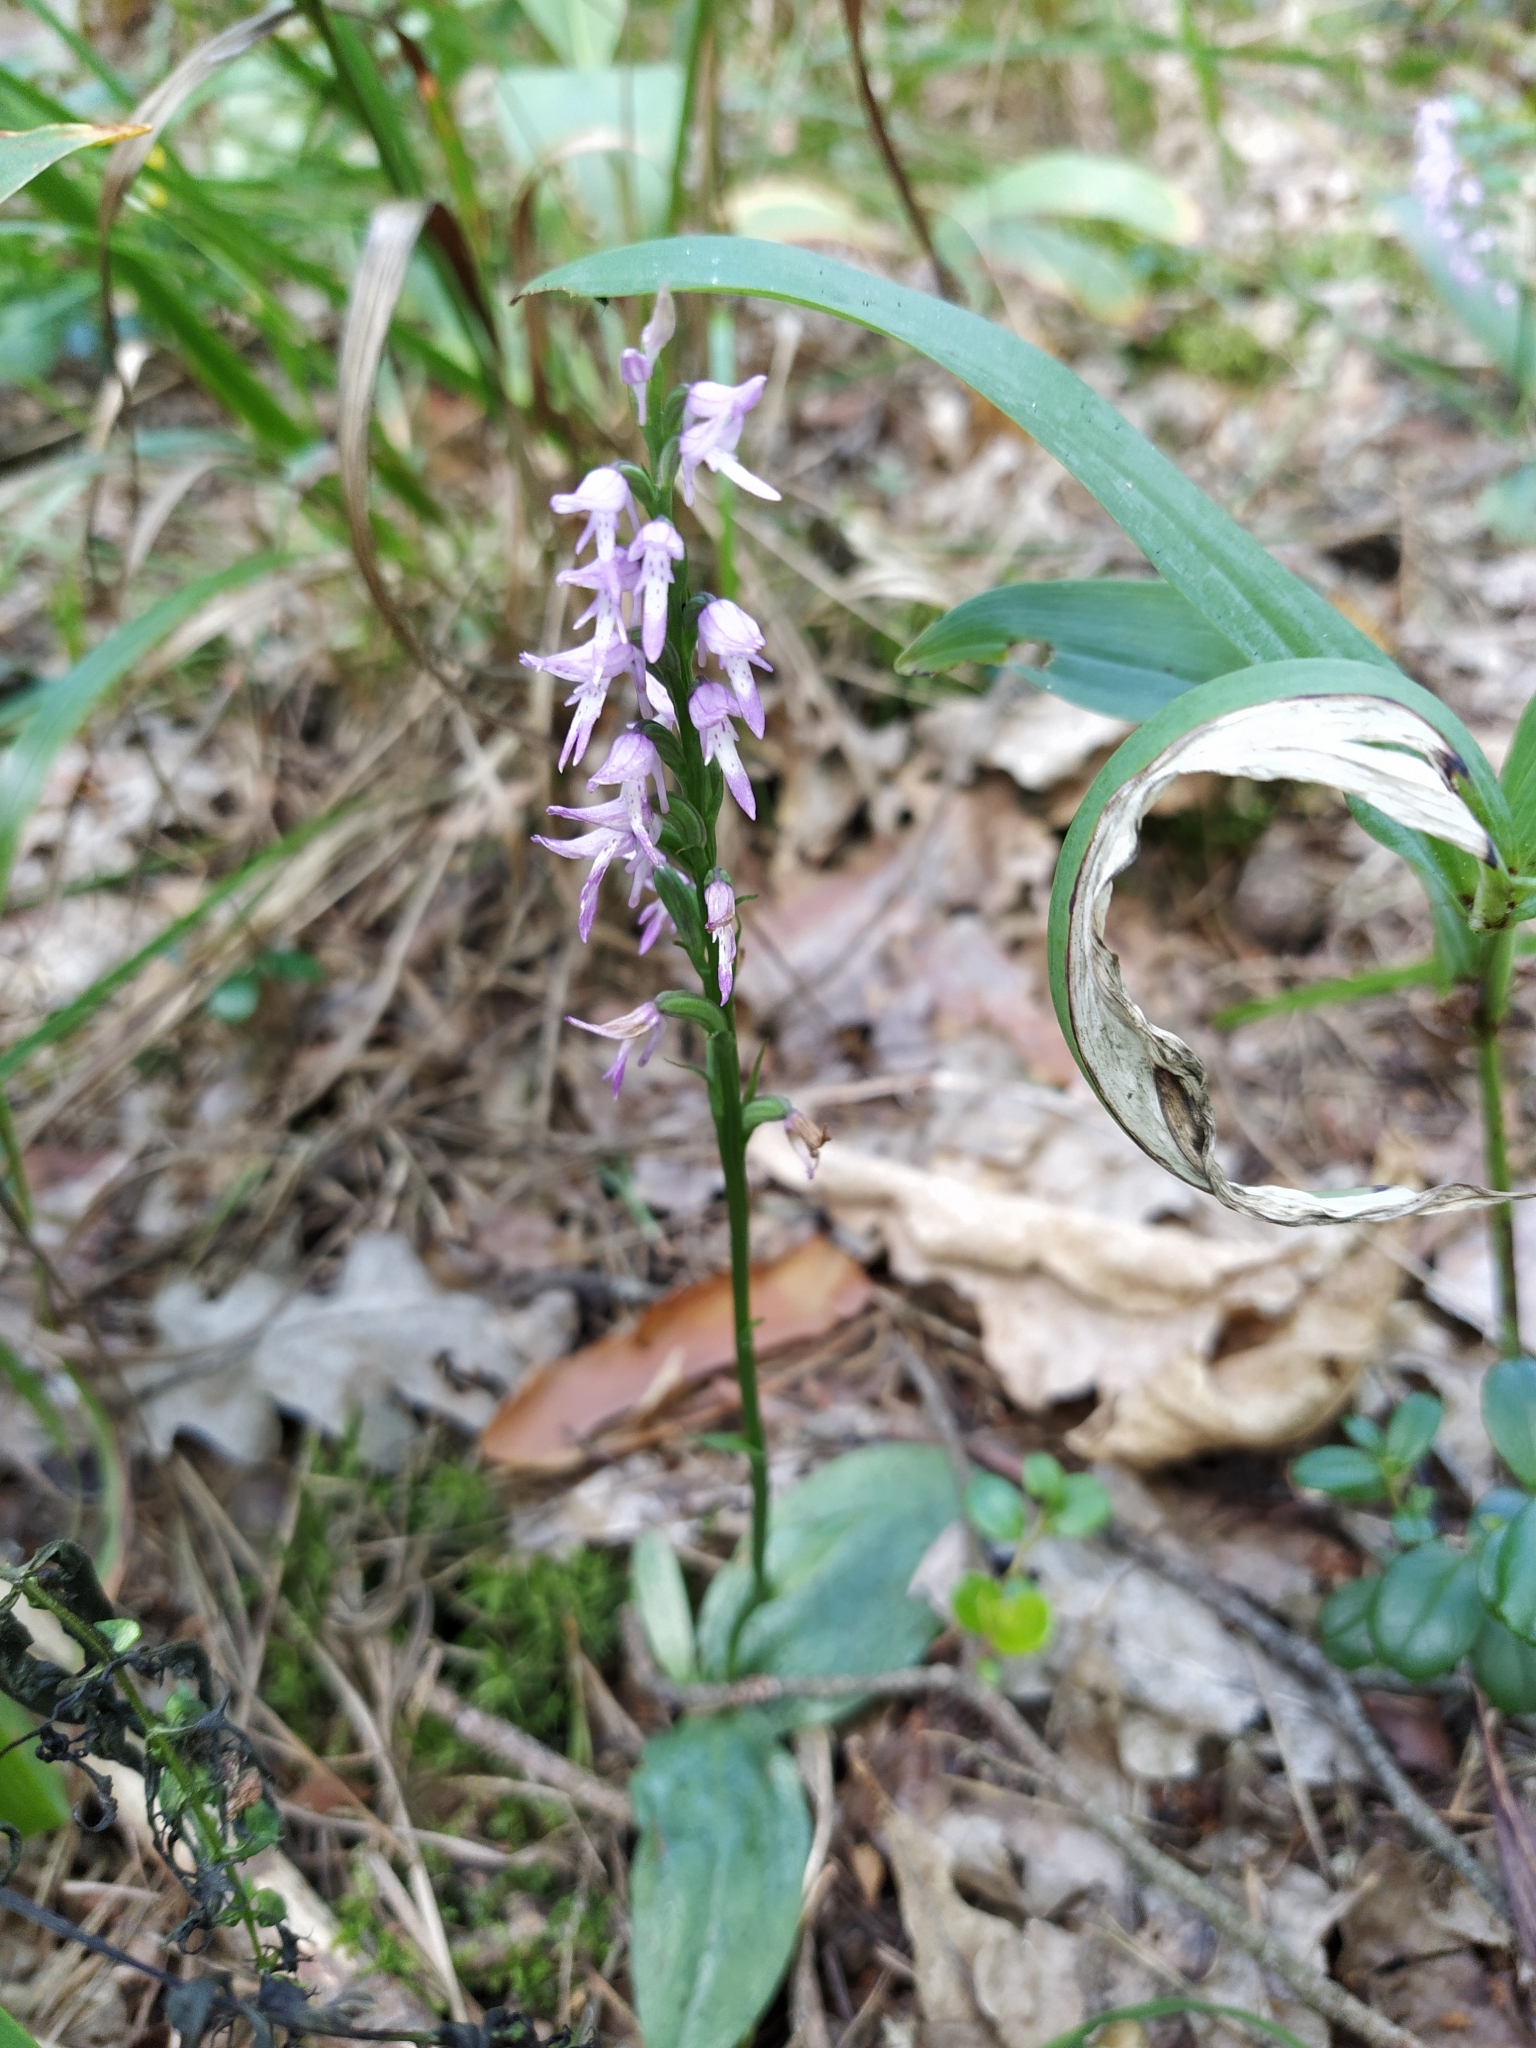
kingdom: Plantae
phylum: Tracheophyta
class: Liliopsida
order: Asparagales
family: Orchidaceae
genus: Hemipilia
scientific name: Hemipilia cucullata
